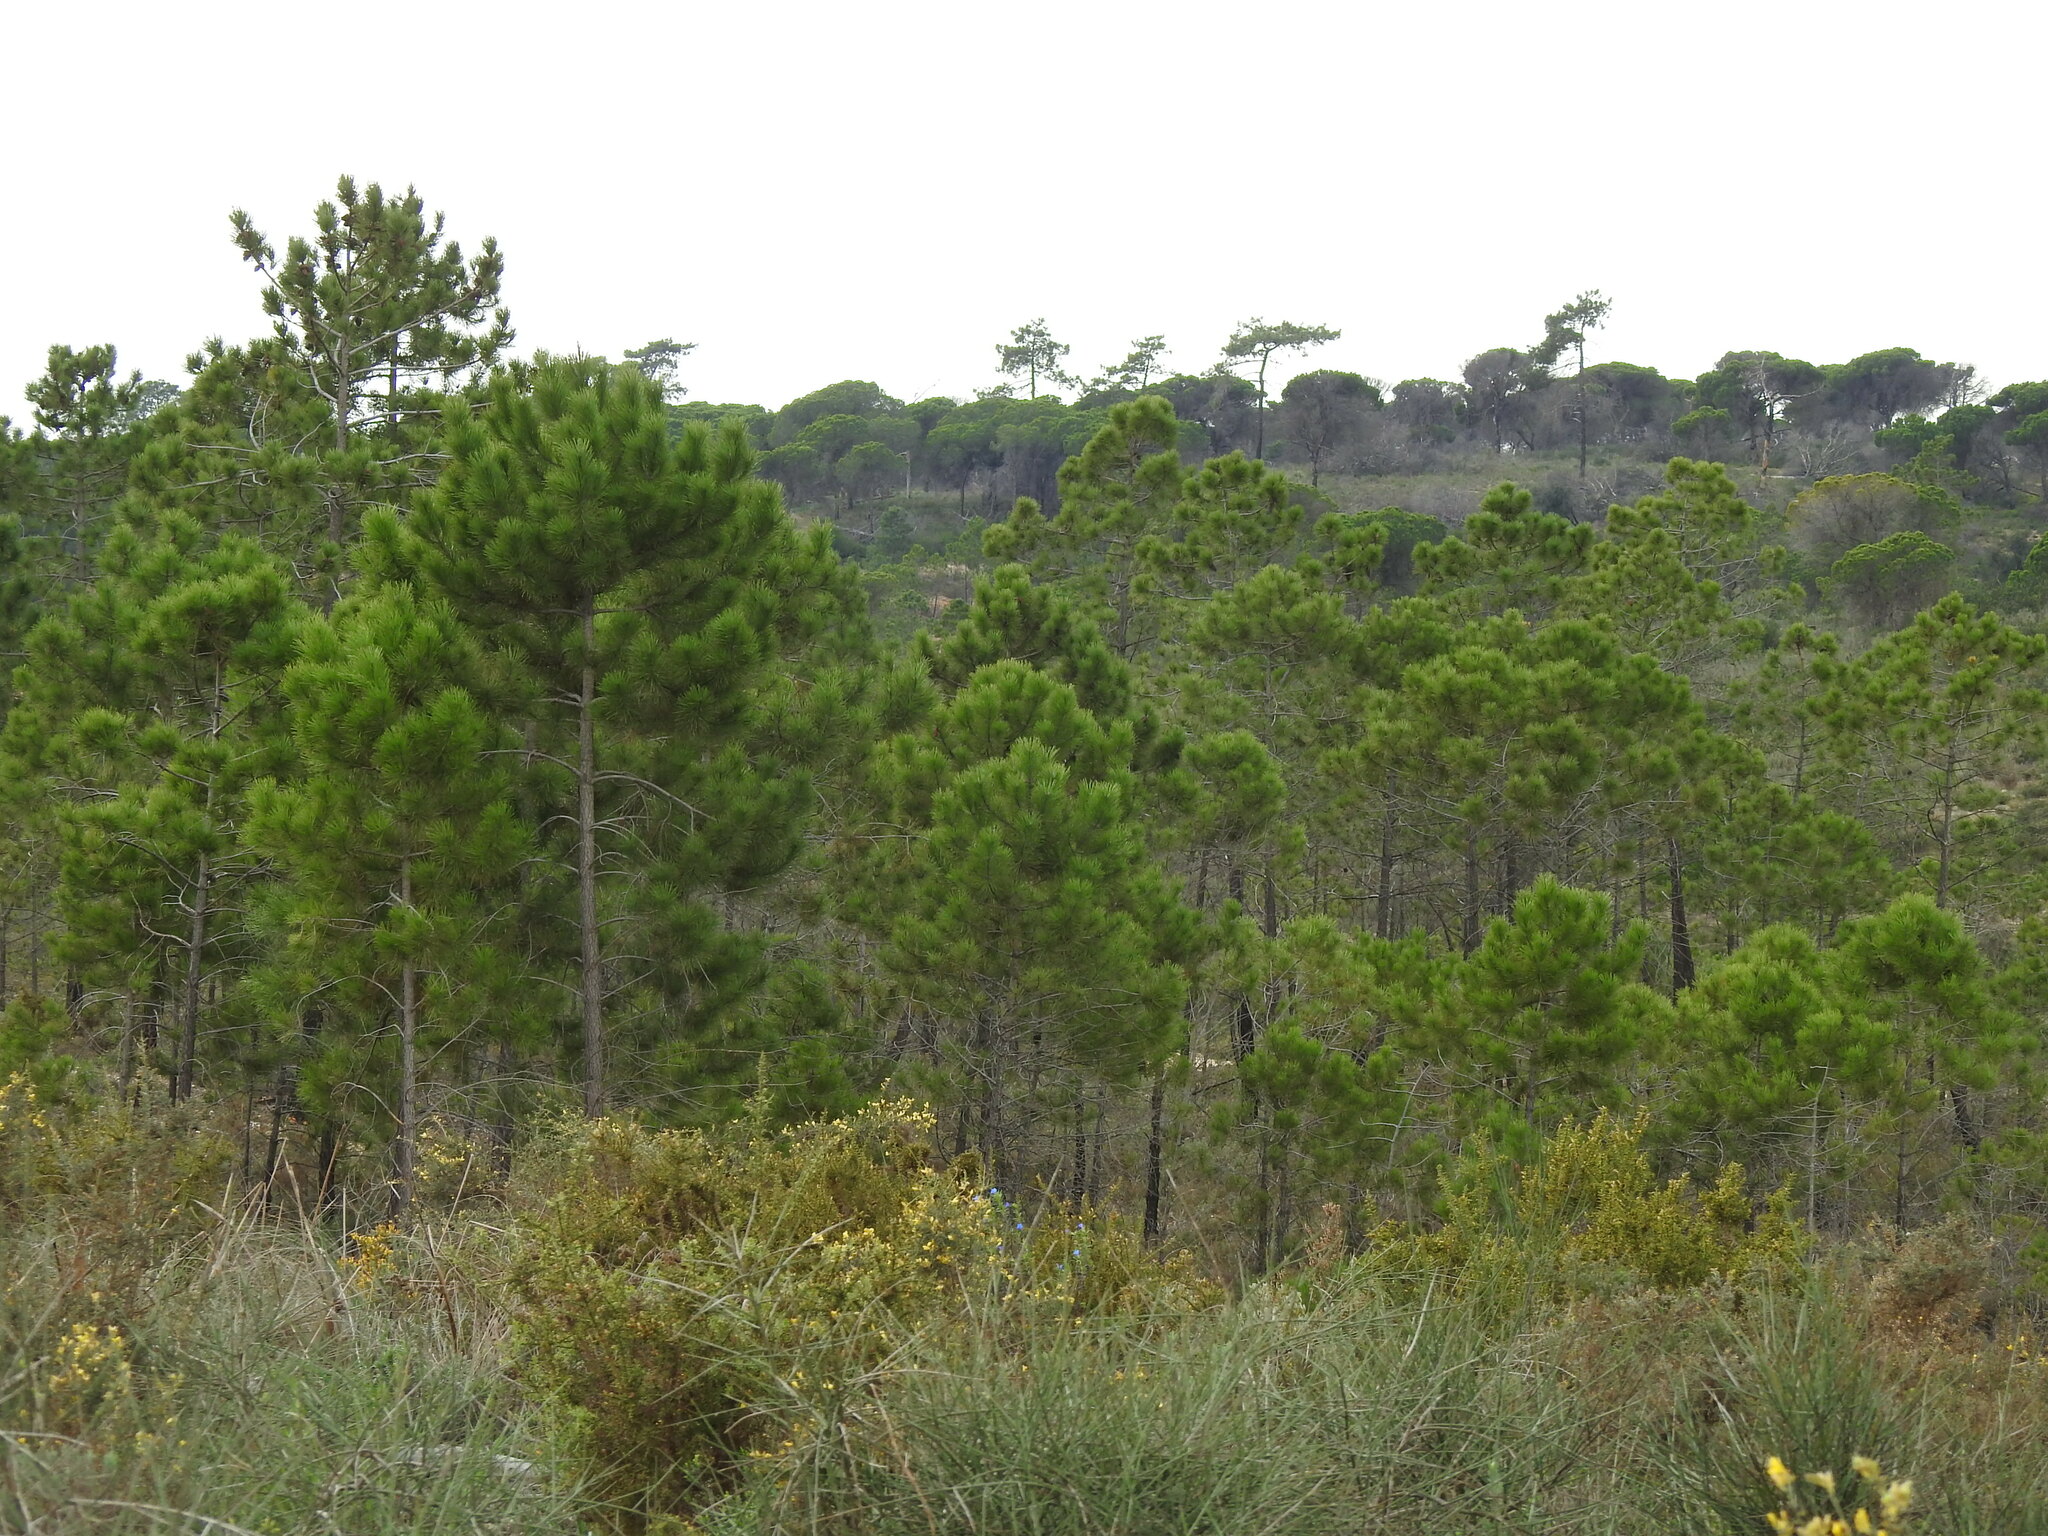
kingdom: Plantae
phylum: Tracheophyta
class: Pinopsida
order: Pinales
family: Pinaceae
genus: Pinus
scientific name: Pinus pinaster
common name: Maritime pine
